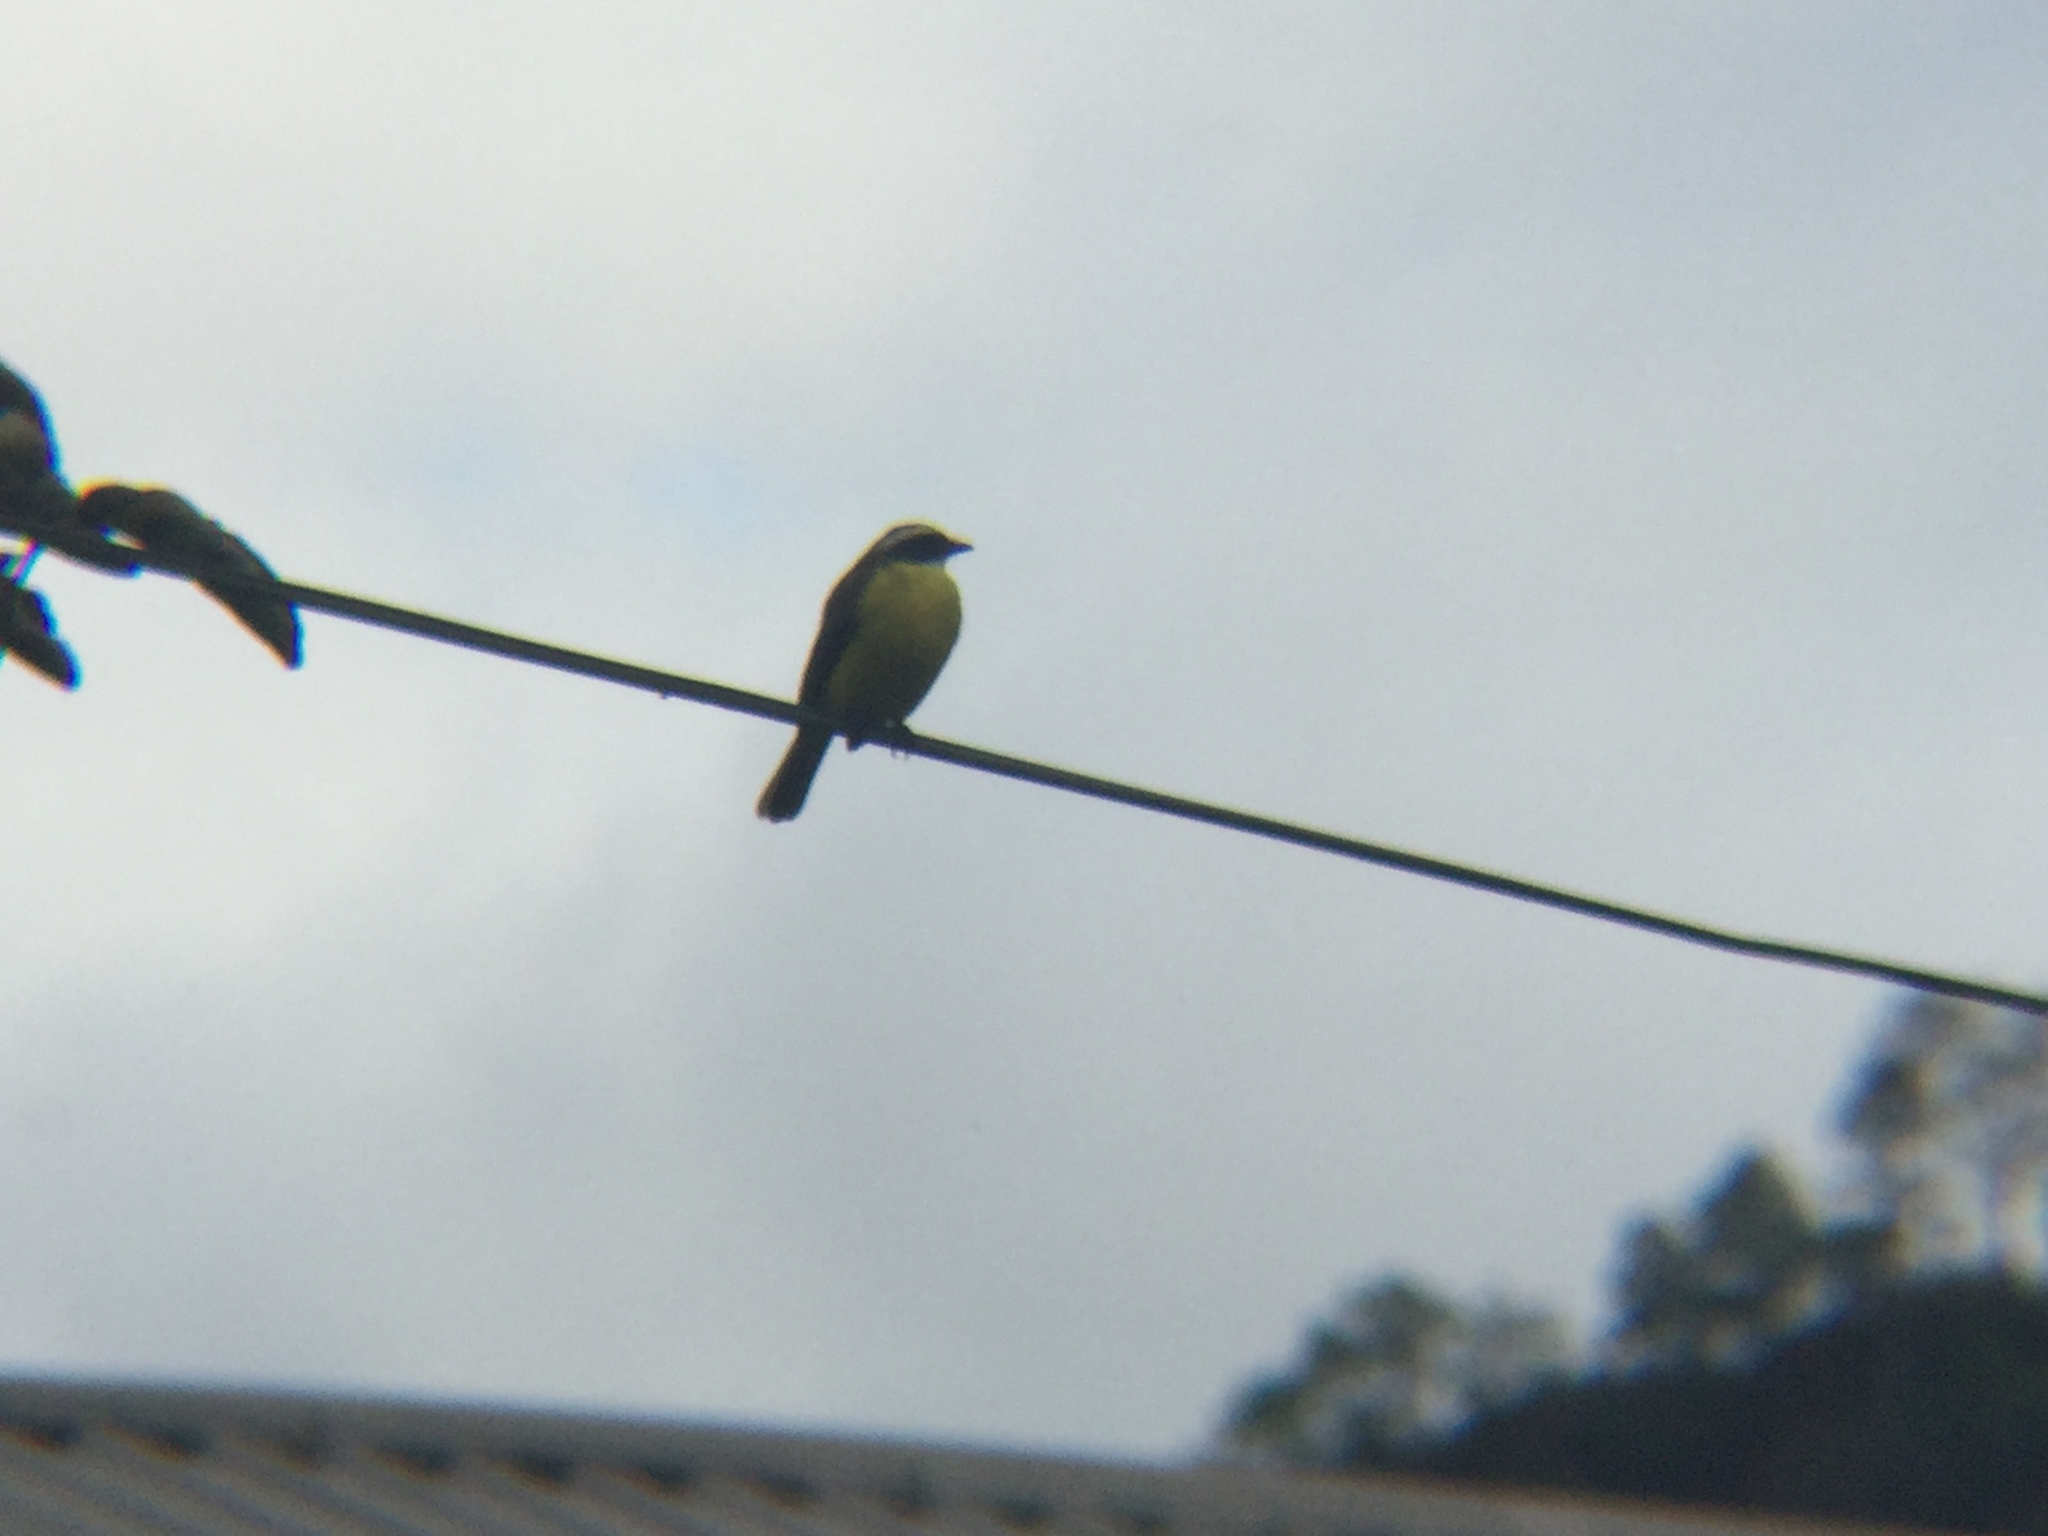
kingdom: Animalia
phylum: Chordata
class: Aves
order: Passeriformes
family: Tyrannidae
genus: Myiozetetes
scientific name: Myiozetetes similis
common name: Social flycatcher
